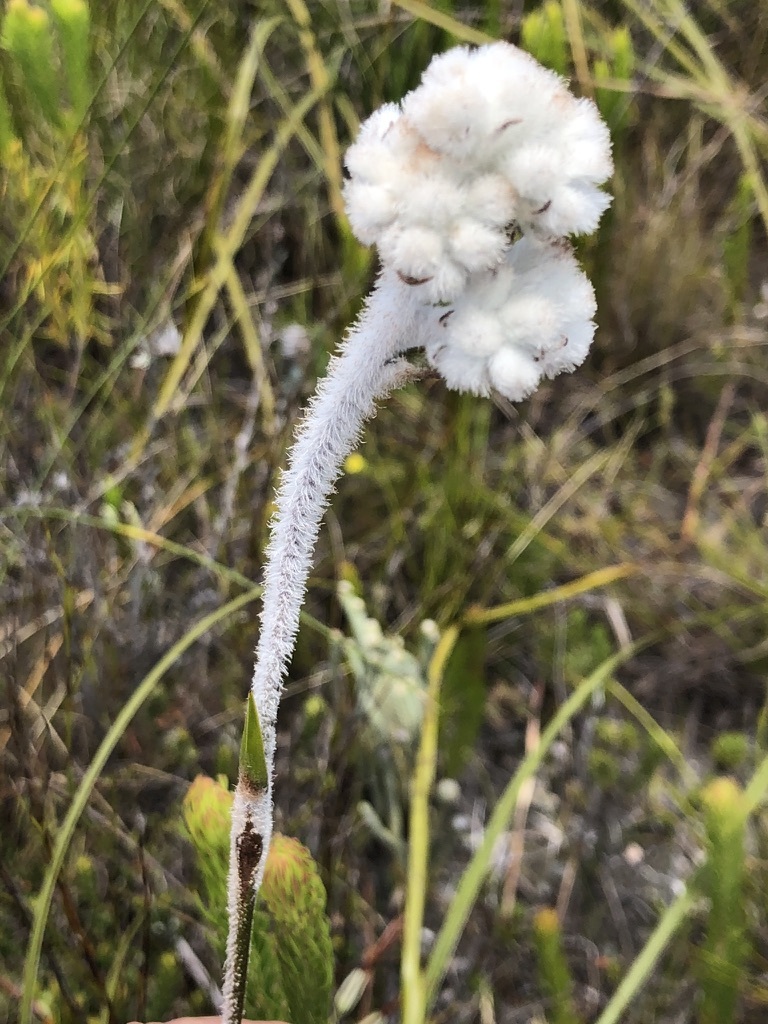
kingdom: Plantae
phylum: Tracheophyta
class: Liliopsida
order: Asparagales
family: Lanariaceae
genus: Lanaria
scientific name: Lanaria lanata
